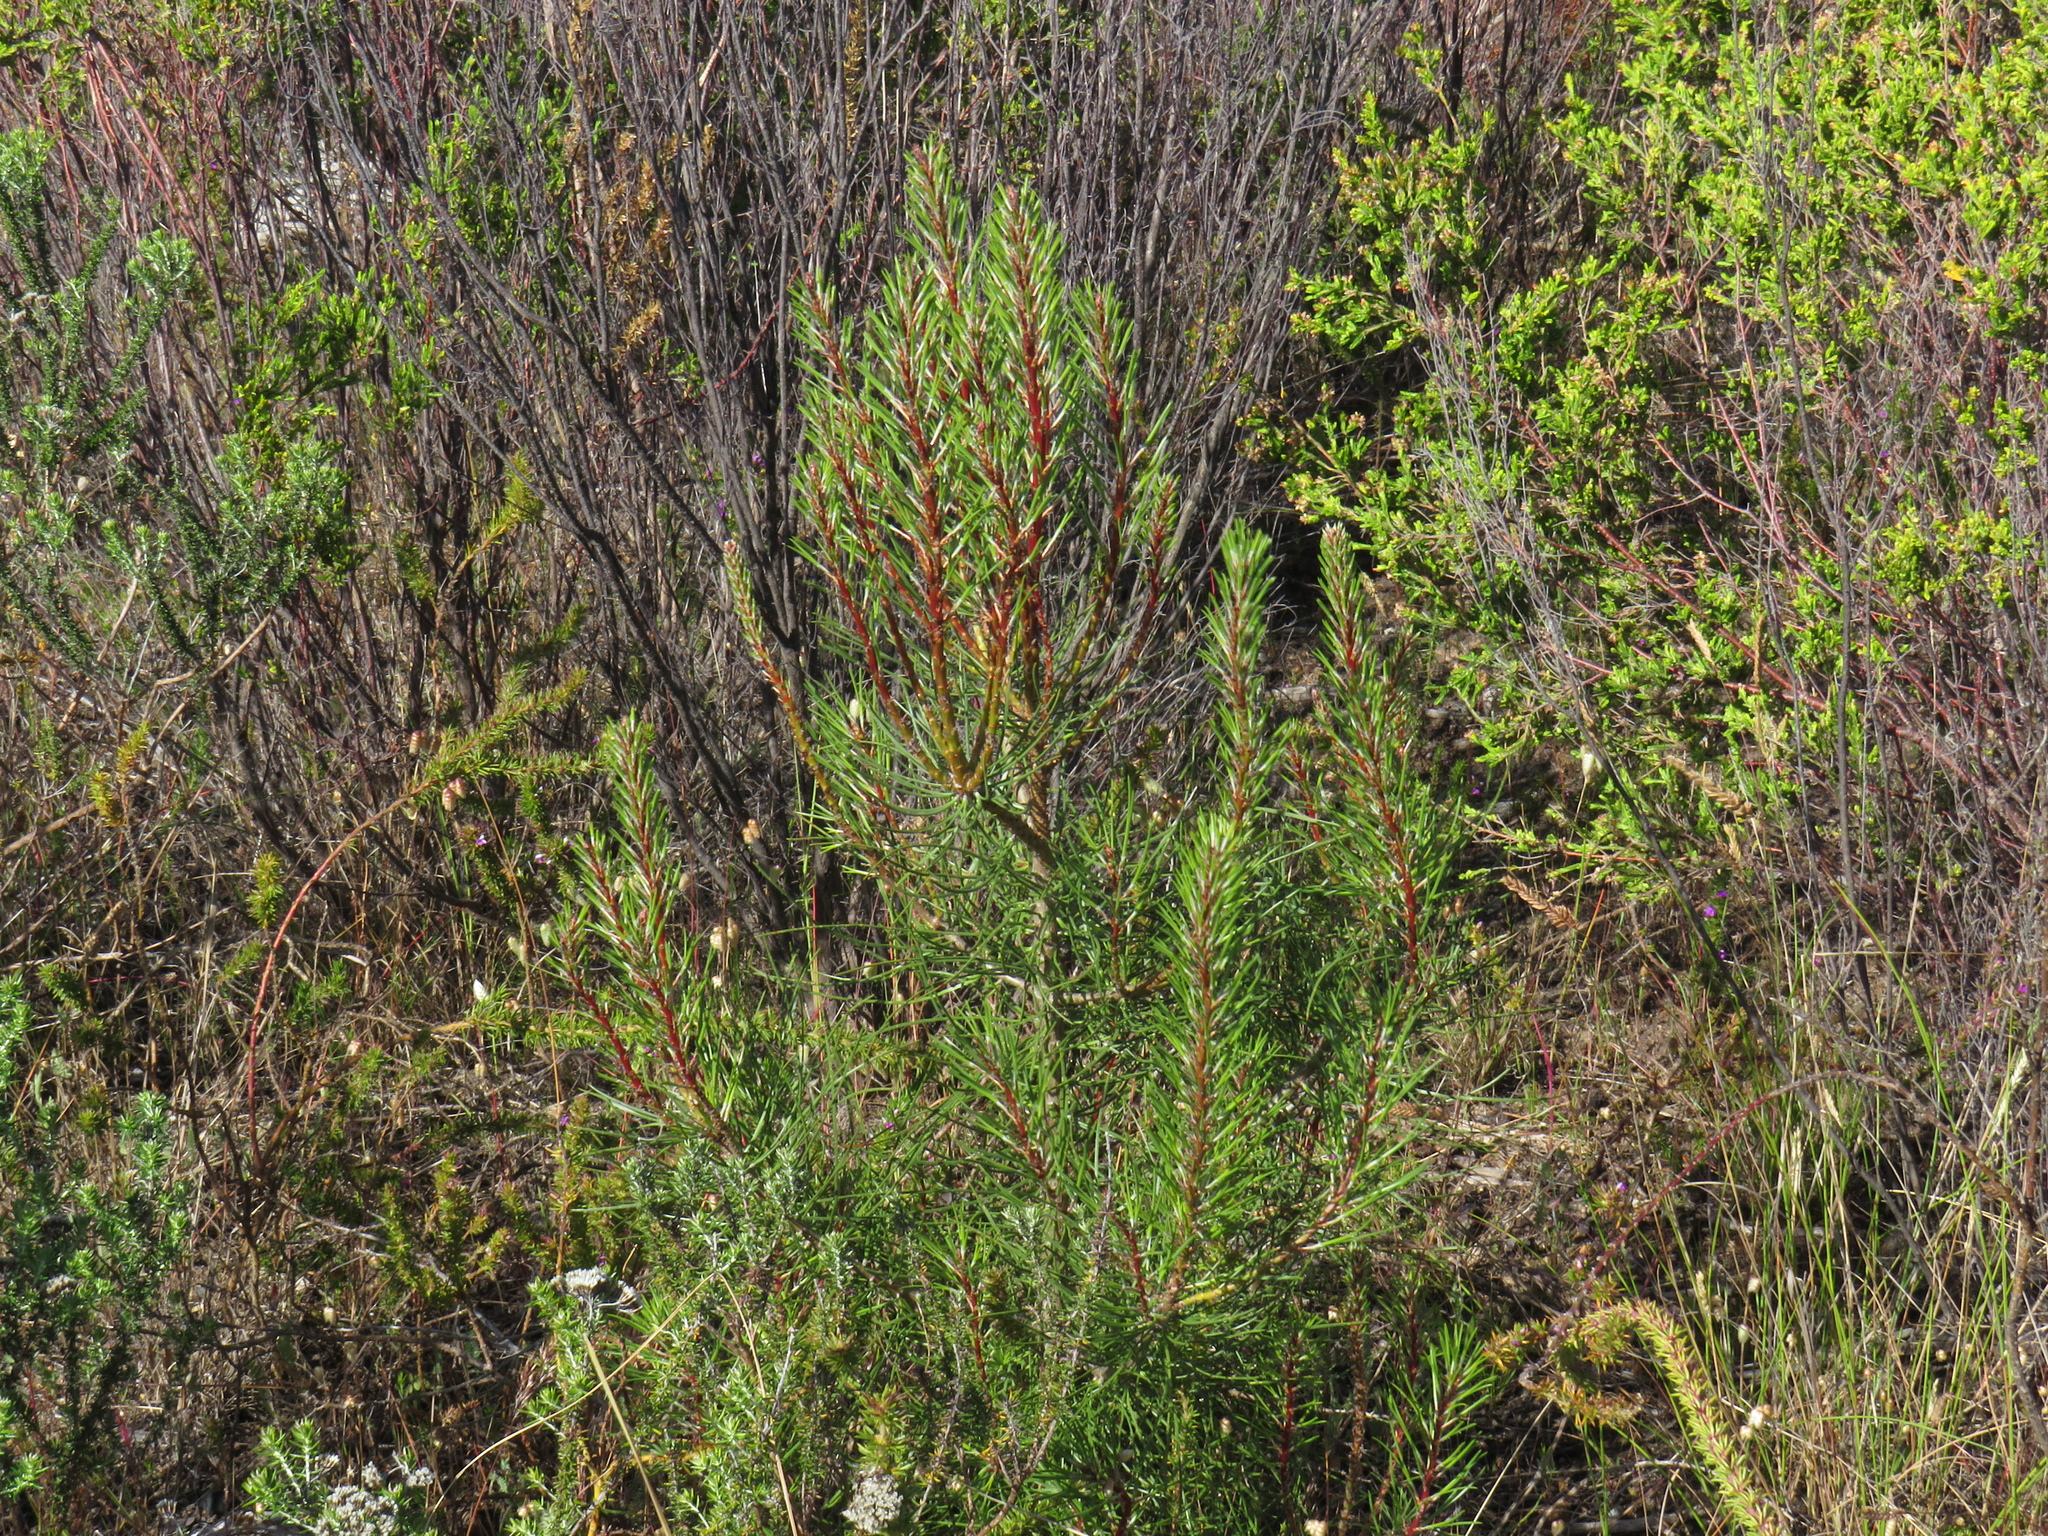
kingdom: Plantae
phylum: Tracheophyta
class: Pinopsida
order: Pinales
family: Pinaceae
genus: Pinus
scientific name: Pinus pinaster
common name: Maritime pine
